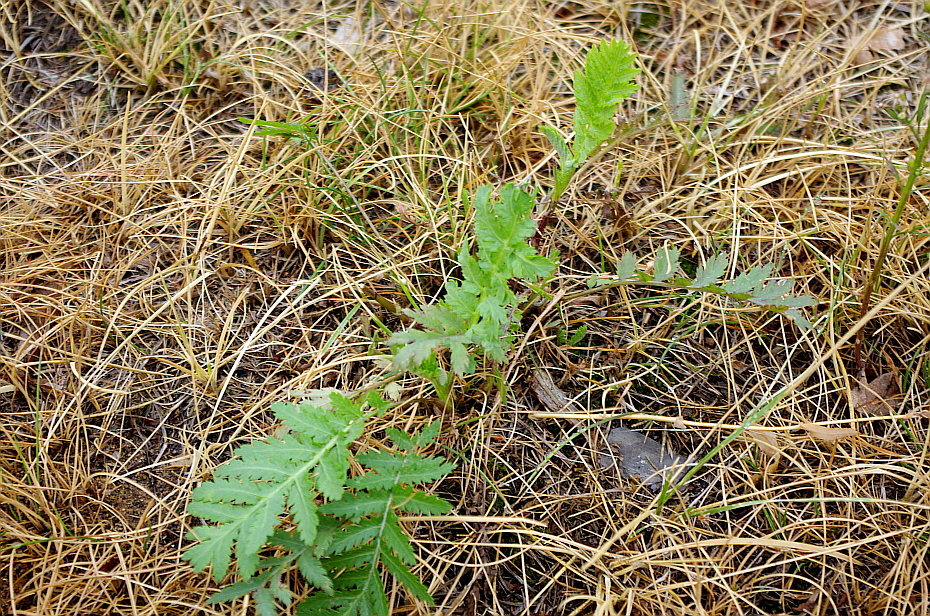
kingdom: Plantae
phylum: Tracheophyta
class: Magnoliopsida
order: Asterales
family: Asteraceae
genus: Tanacetum
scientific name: Tanacetum vulgare
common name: Common tansy
